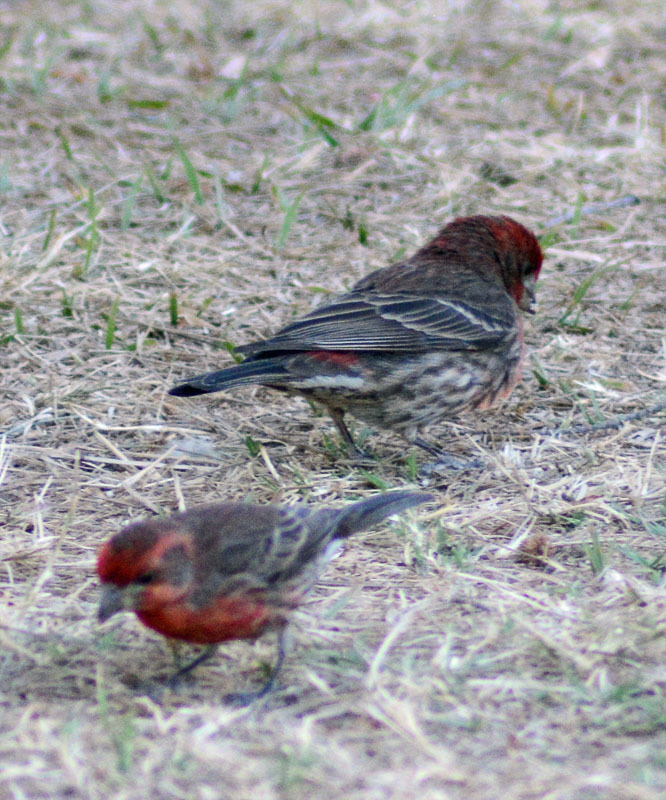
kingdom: Animalia
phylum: Chordata
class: Aves
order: Passeriformes
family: Fringillidae
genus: Haemorhous
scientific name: Haemorhous mexicanus
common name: House finch
